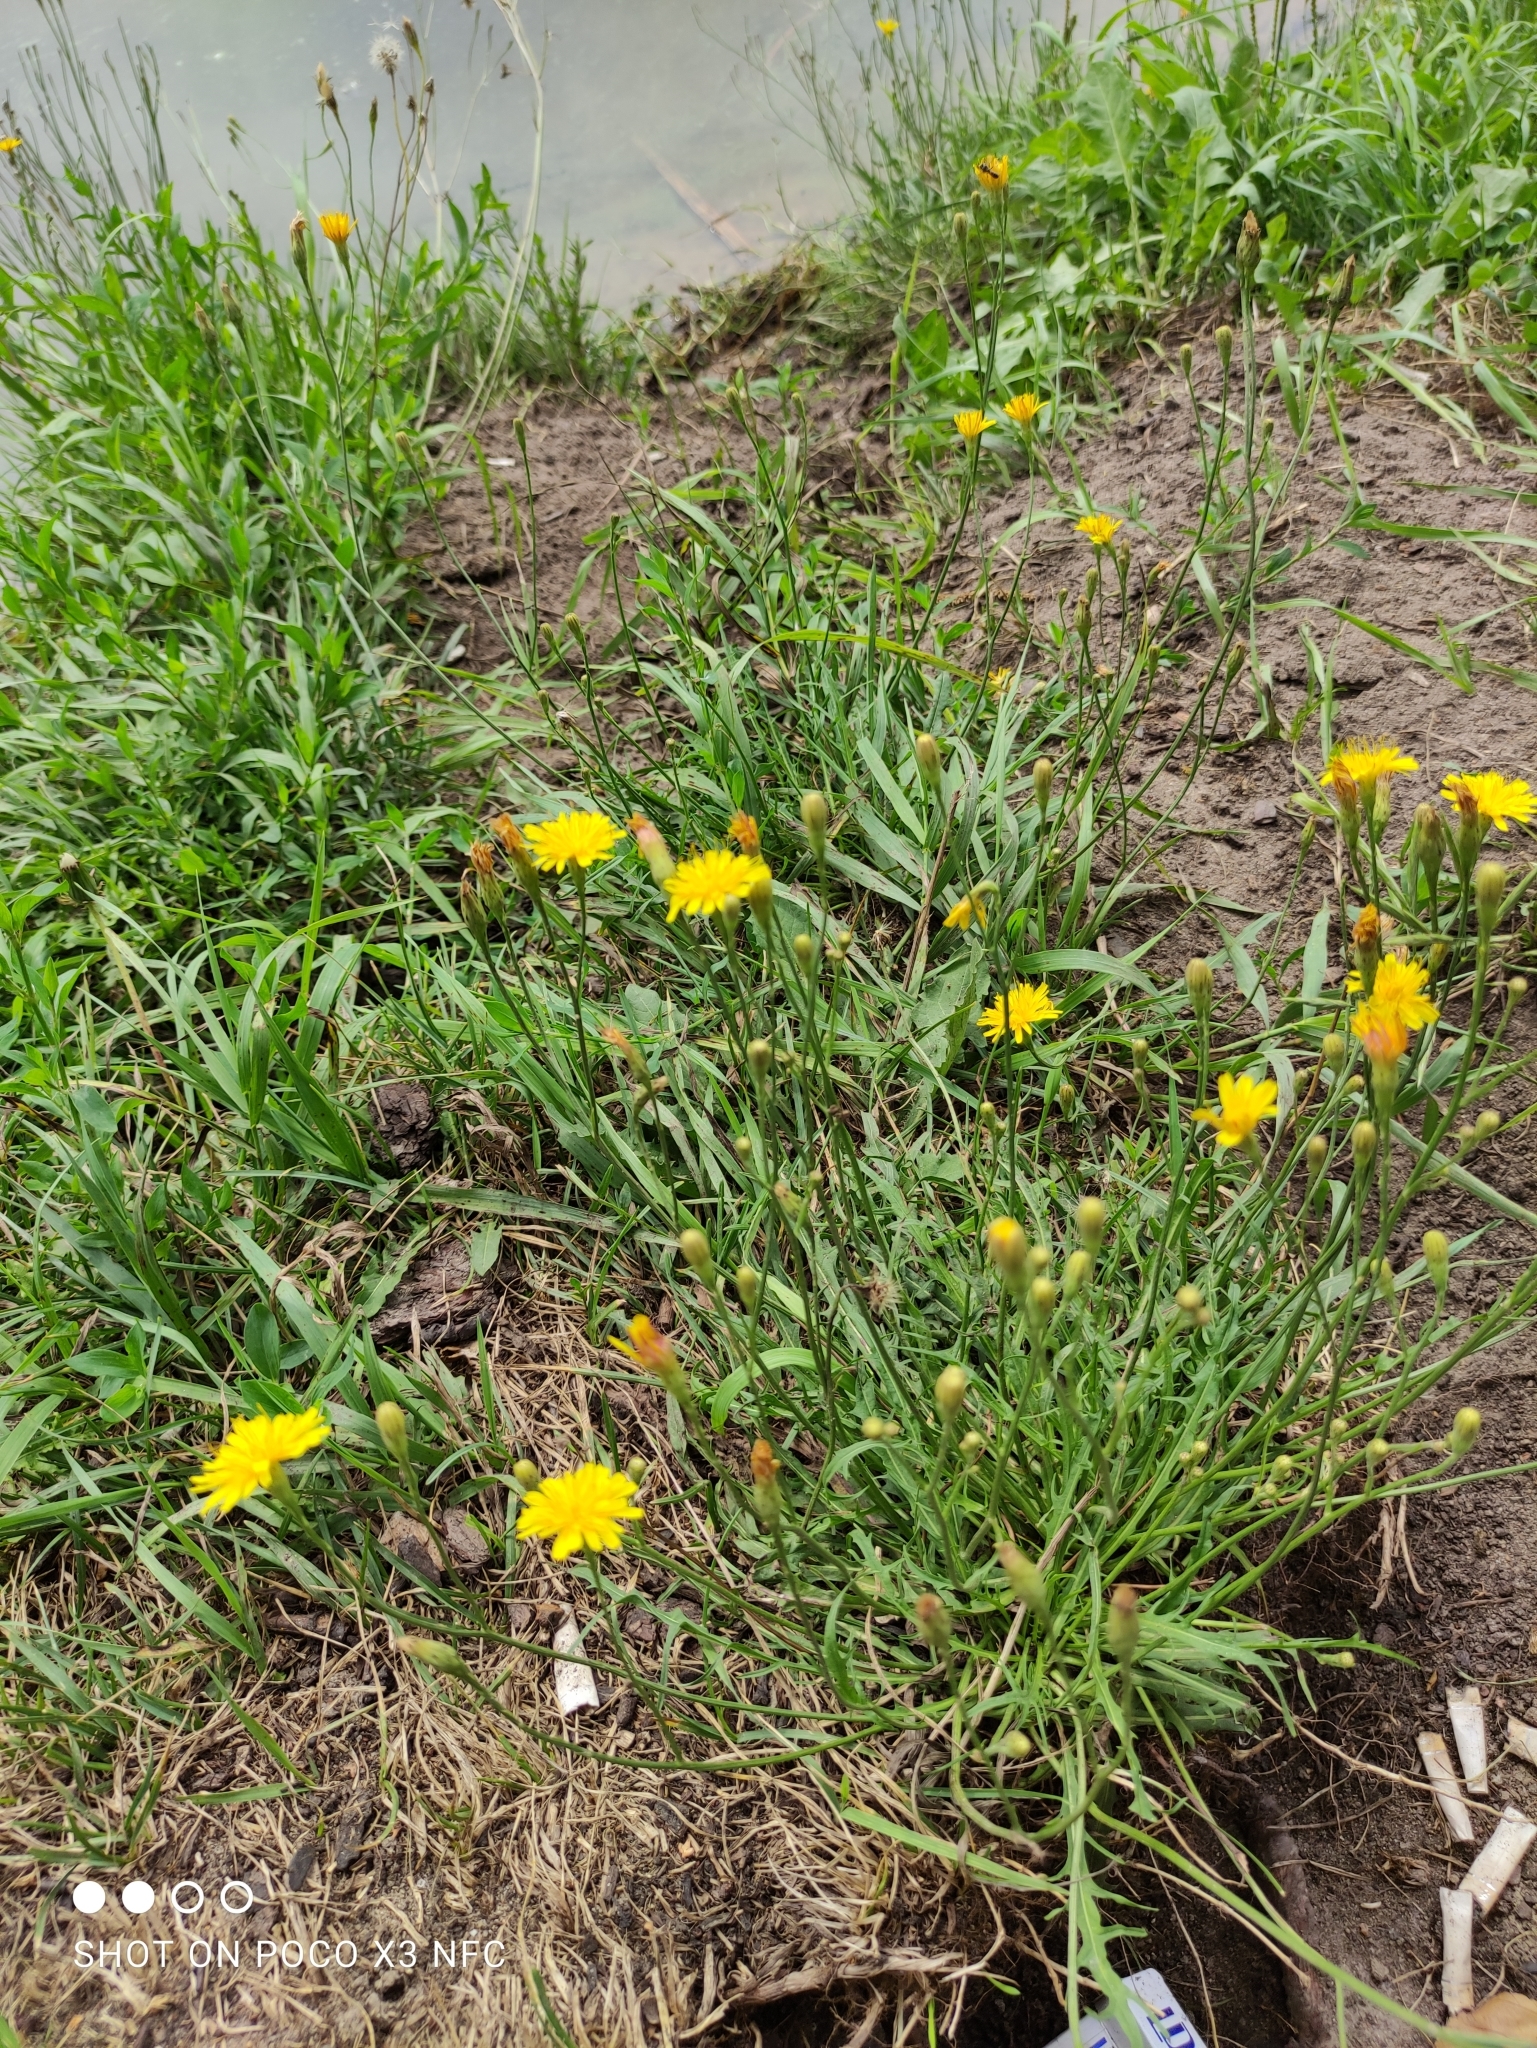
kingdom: Plantae
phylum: Tracheophyta
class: Magnoliopsida
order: Asterales
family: Asteraceae
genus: Scorzoneroides
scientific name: Scorzoneroides autumnalis
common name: Autumn hawkbit
